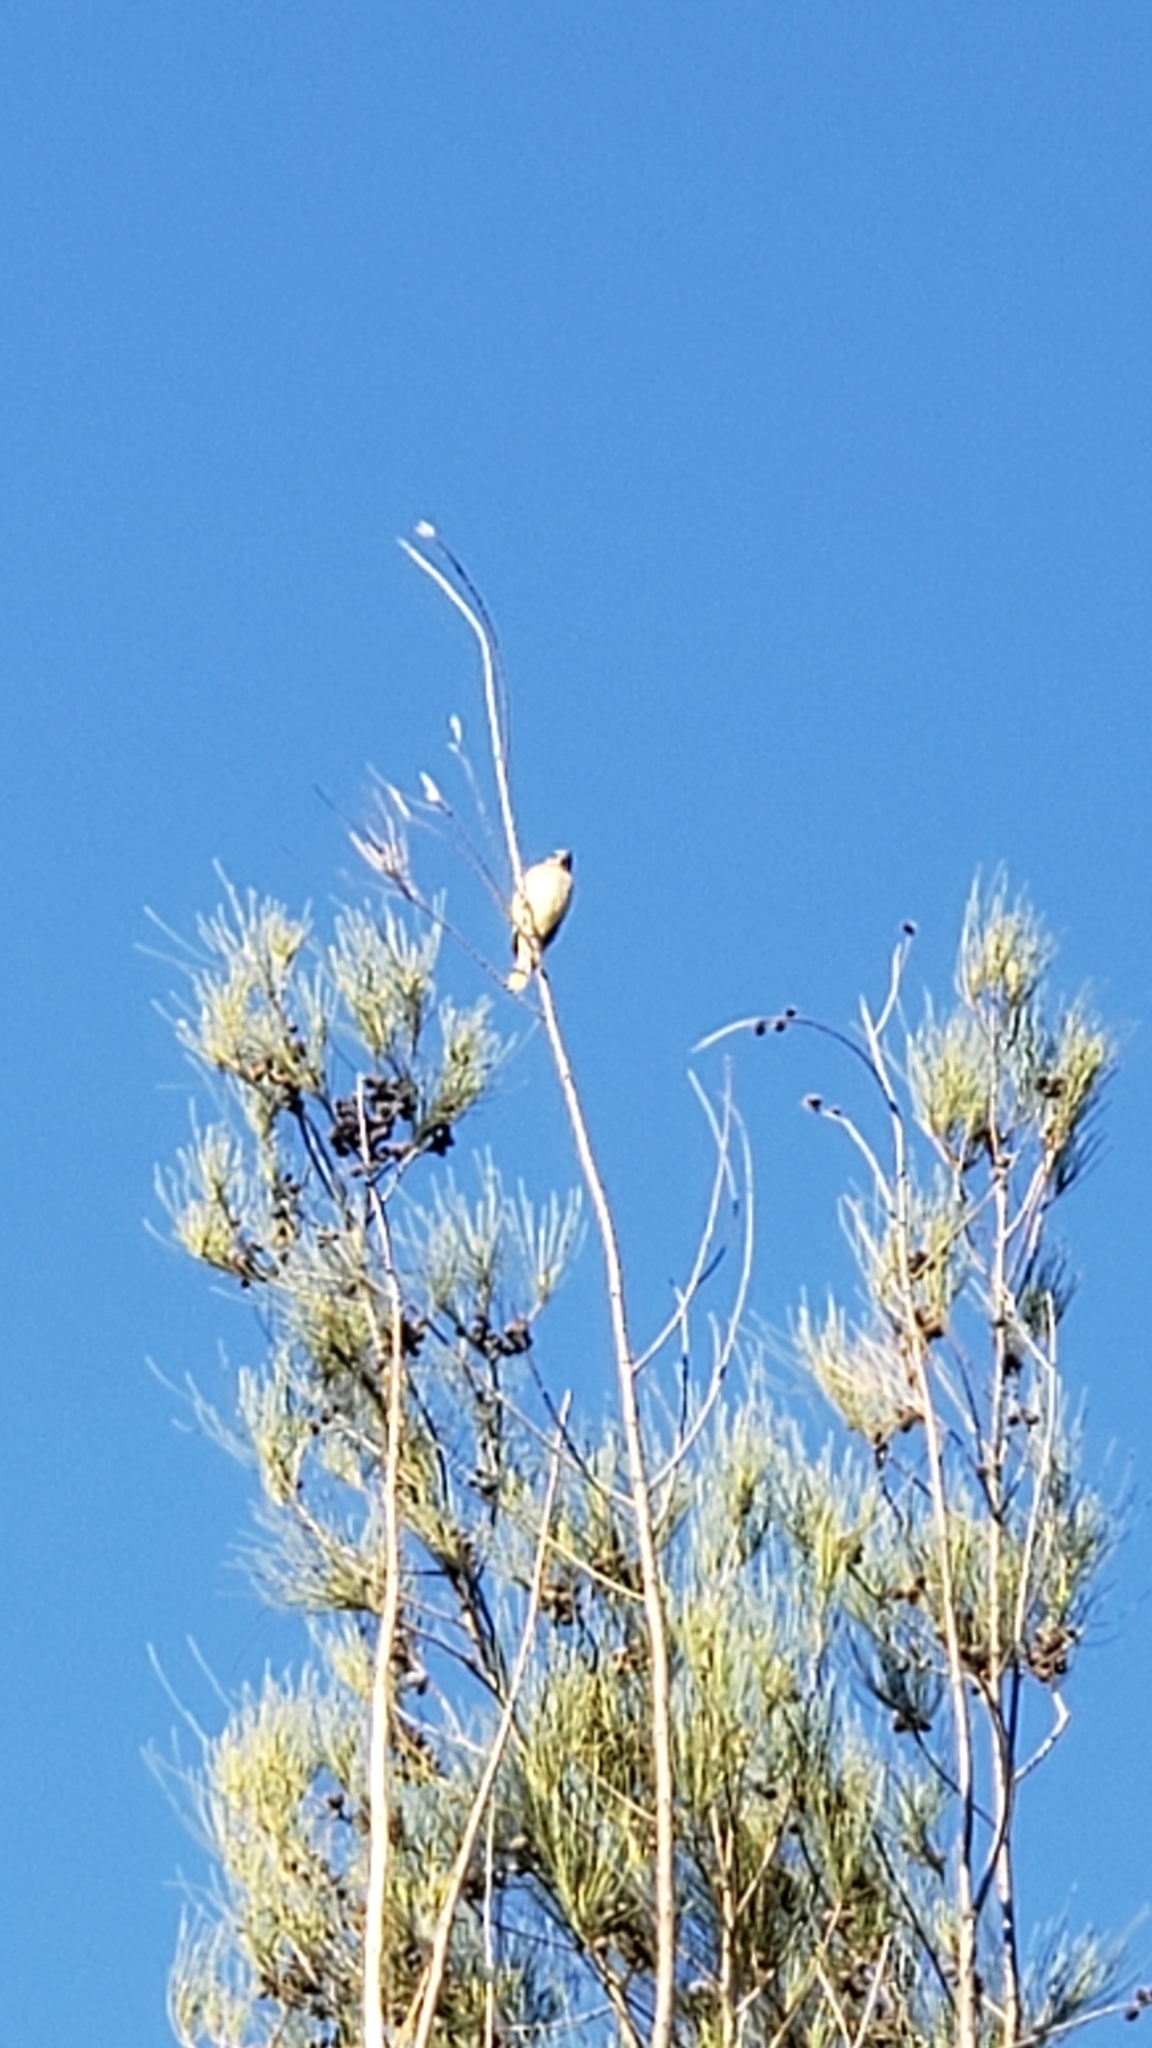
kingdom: Animalia
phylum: Chordata
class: Aves
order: Passeriformes
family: Bombycillidae
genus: Bombycilla
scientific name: Bombycilla cedrorum
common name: Cedar waxwing
